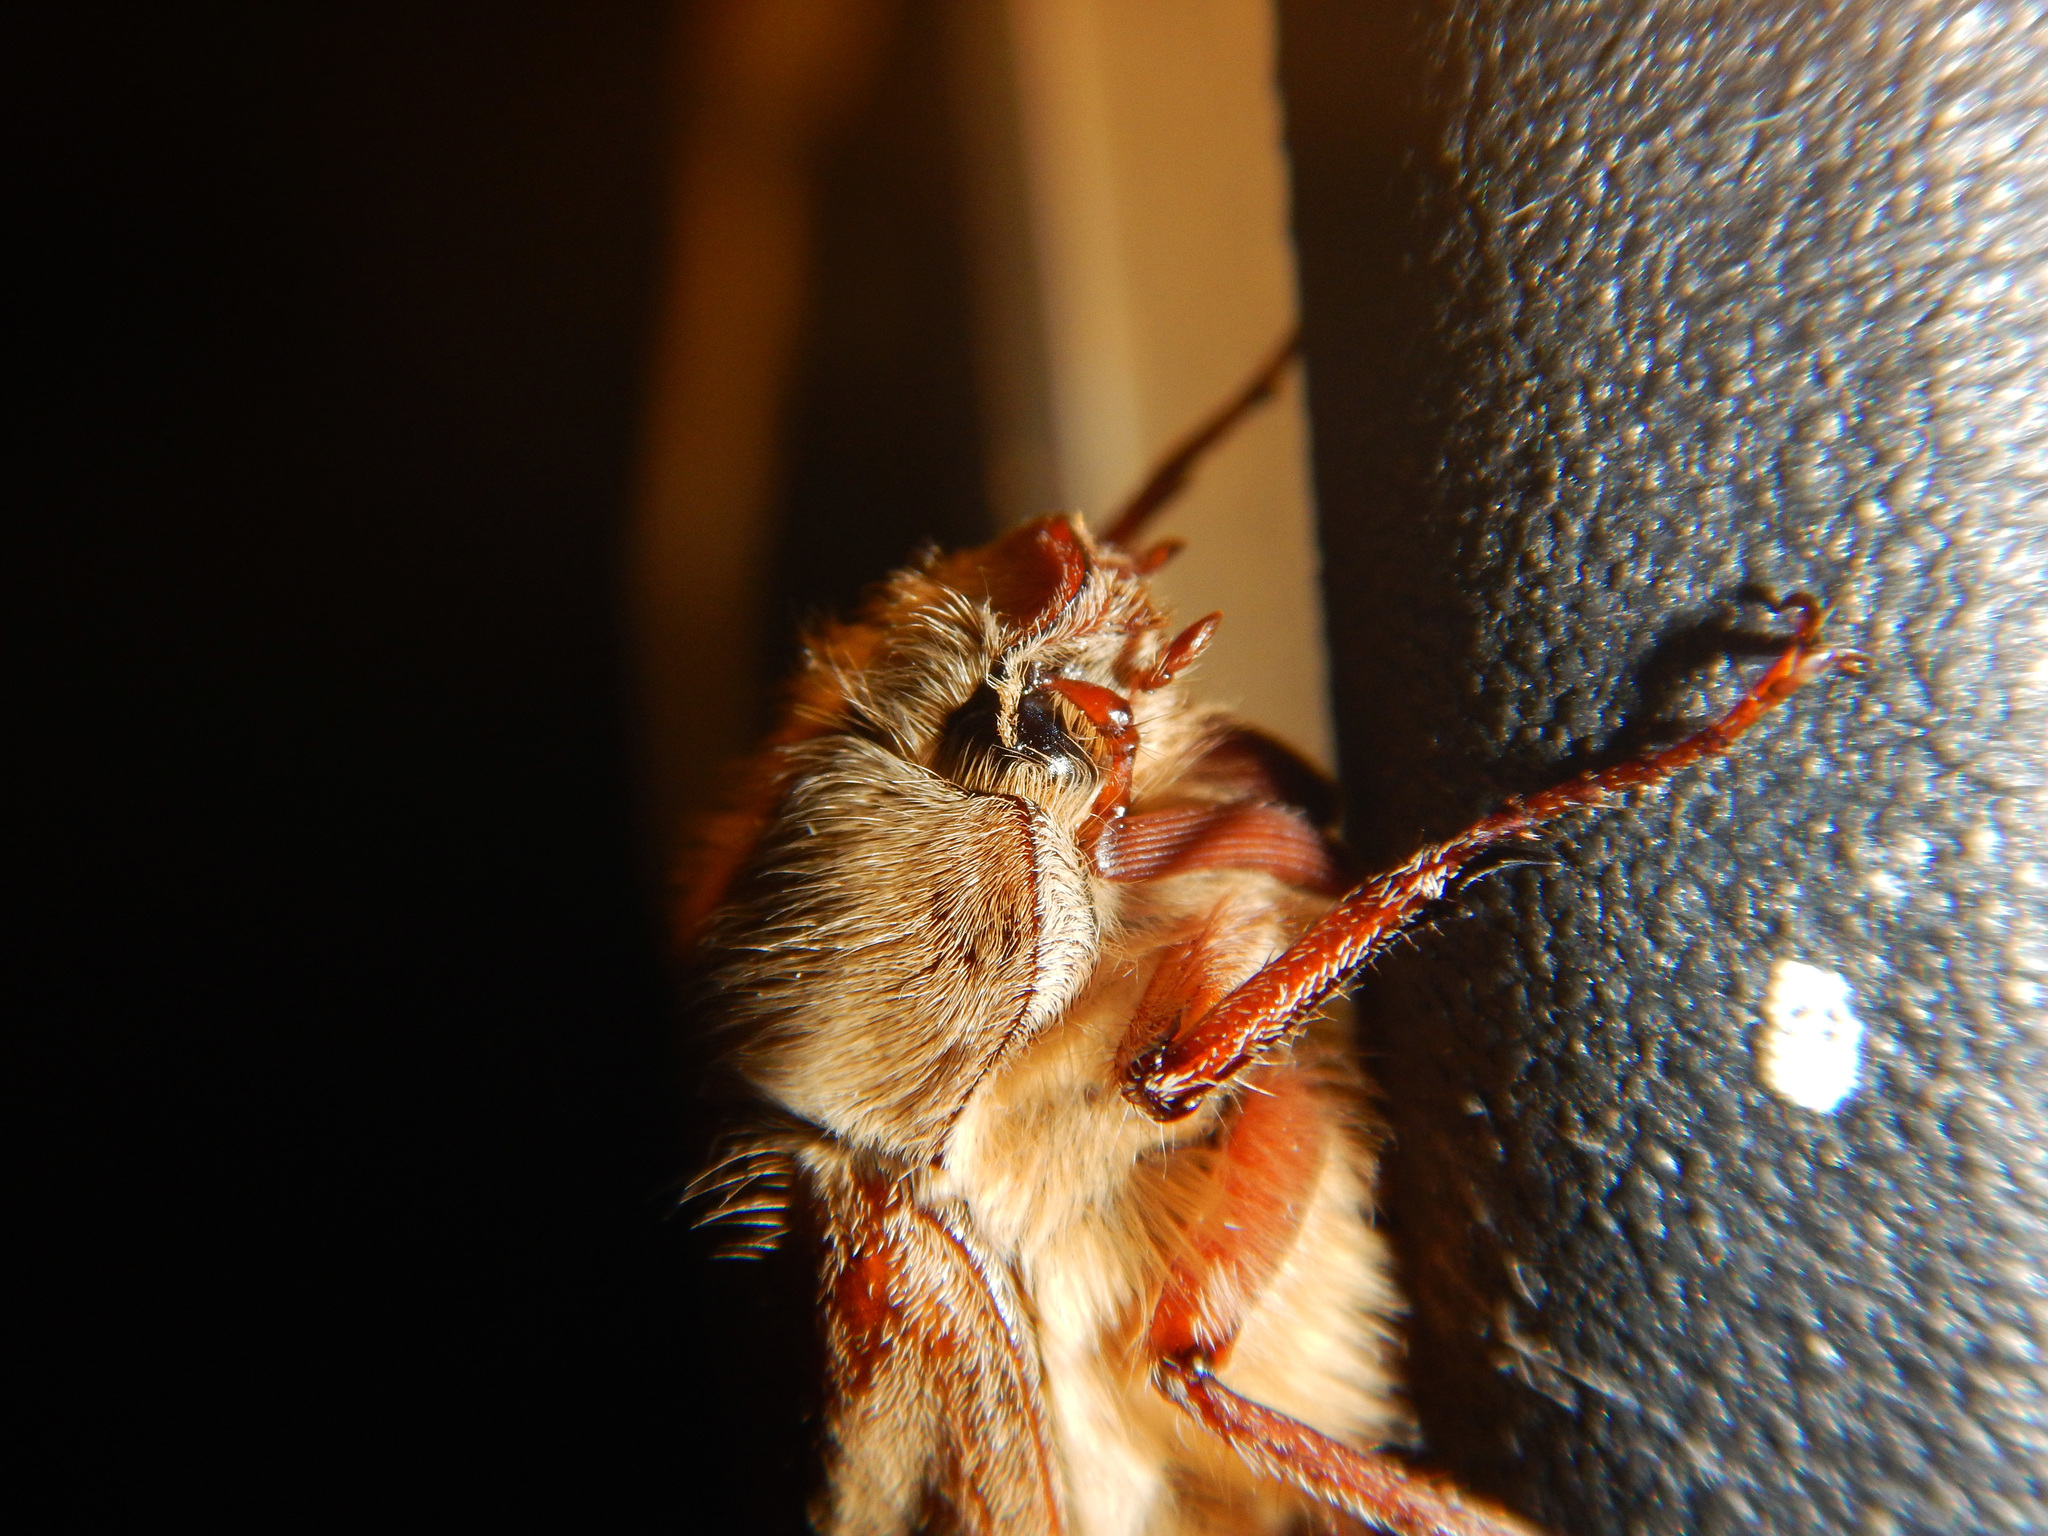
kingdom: Animalia
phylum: Arthropoda
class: Insecta
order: Coleoptera
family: Scarabaeidae
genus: Melolontha
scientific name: Melolontha melolontha
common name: Cockchafer maybeetle
